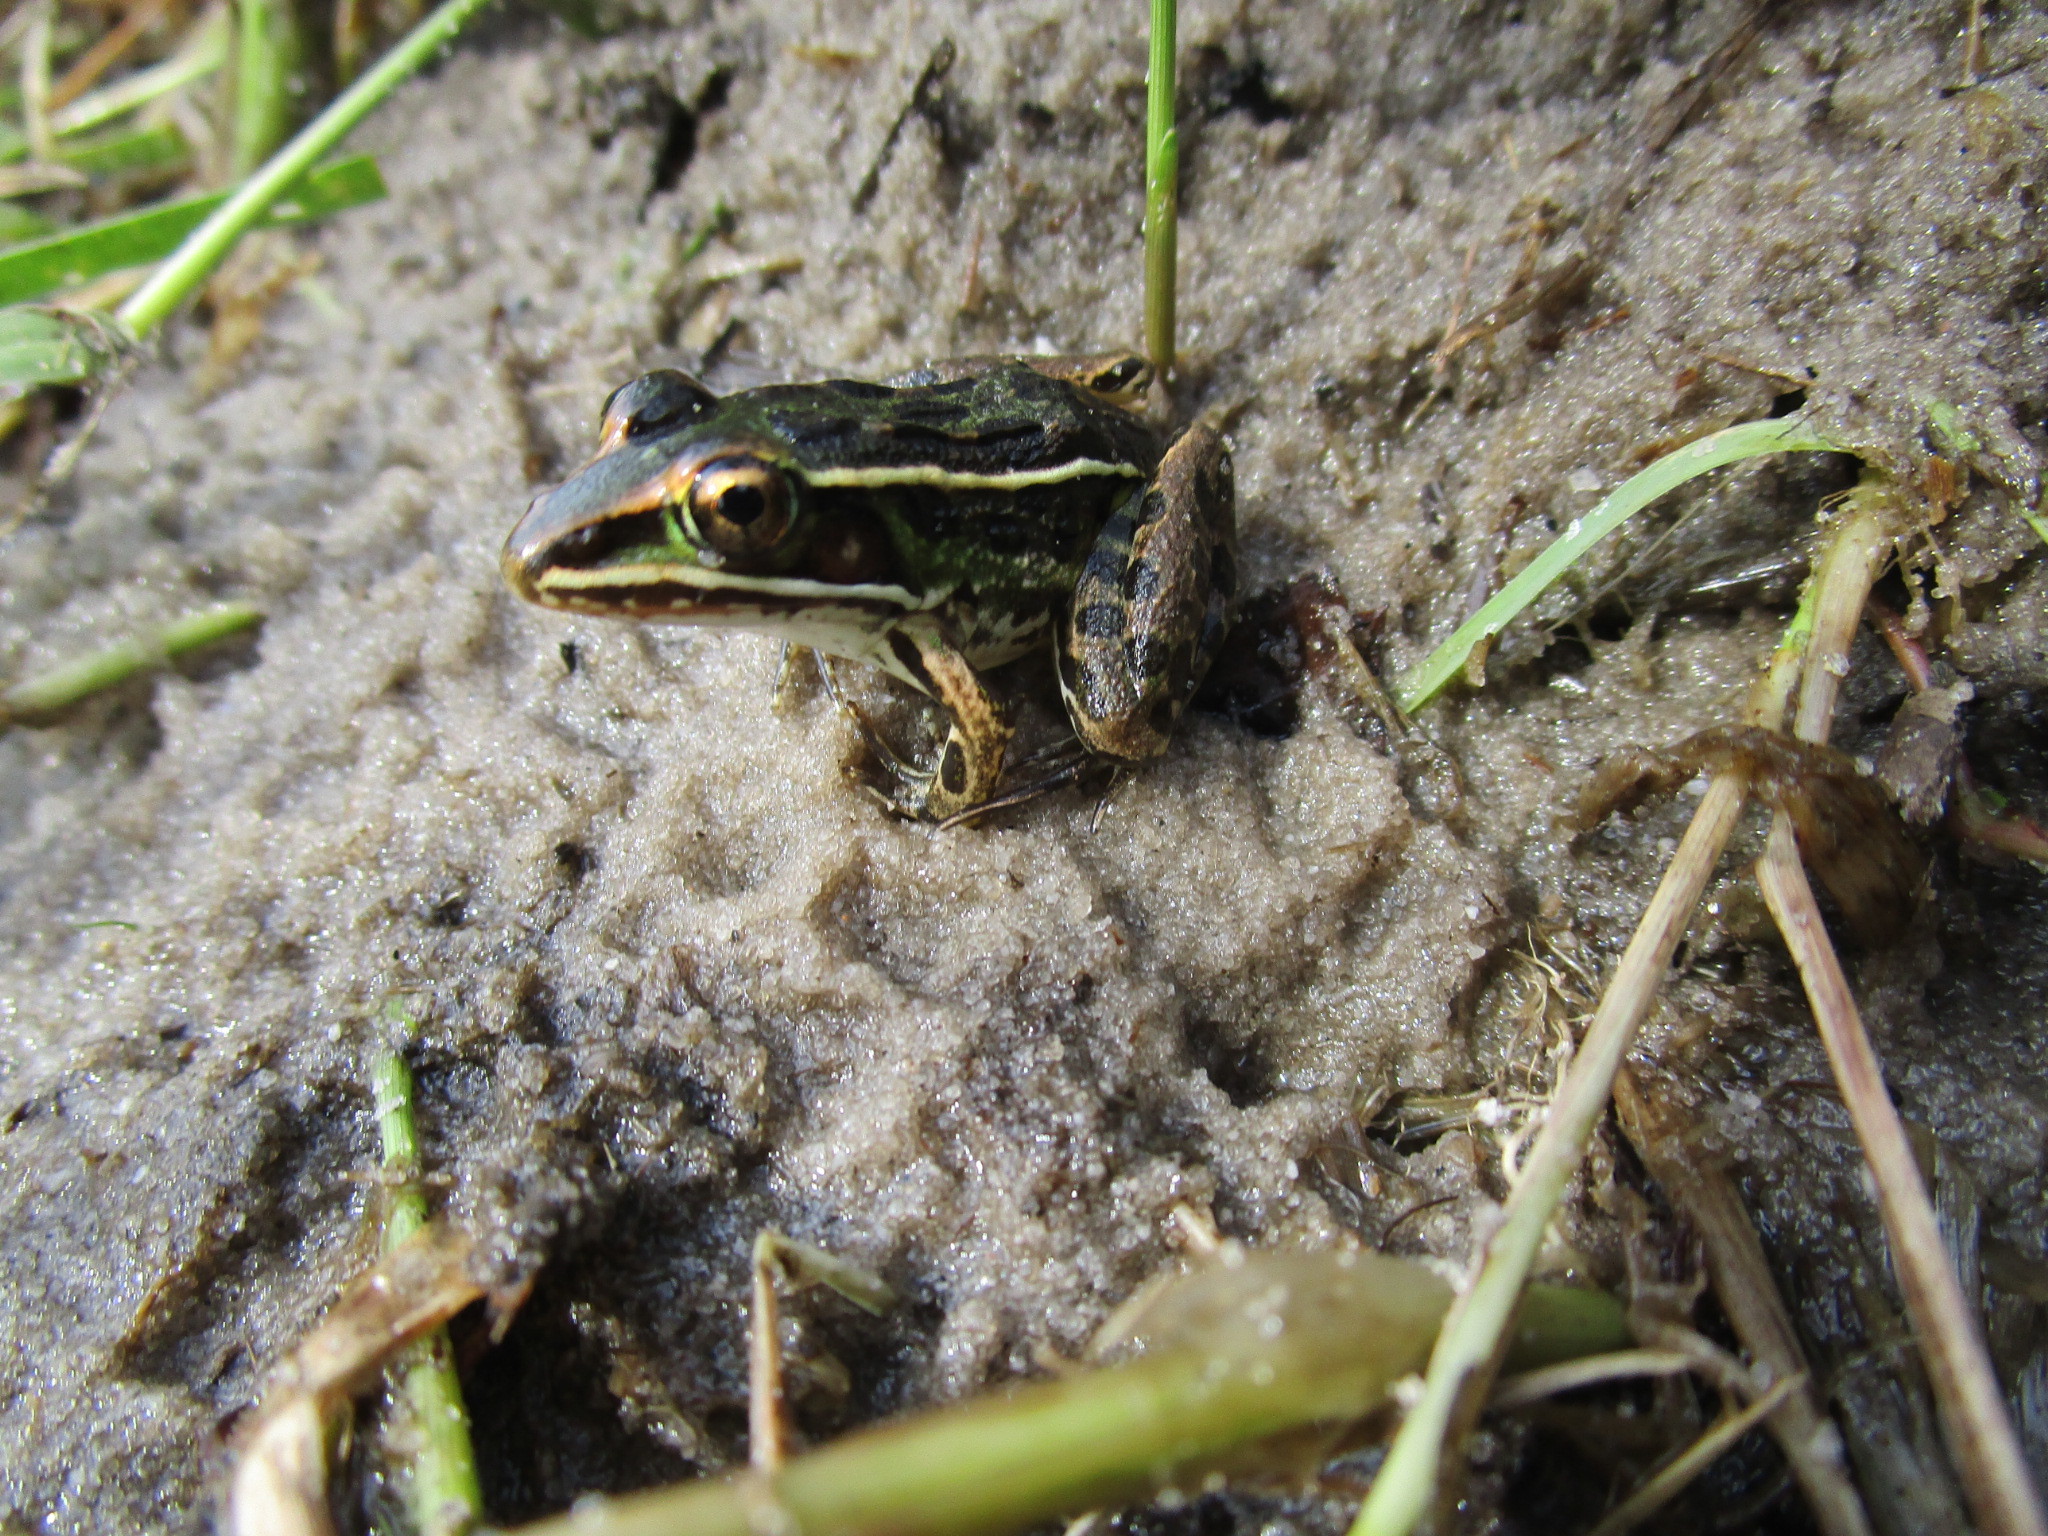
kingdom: Animalia
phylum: Chordata
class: Amphibia
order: Anura
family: Ranidae
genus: Lithobates
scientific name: Lithobates sphenocephalus
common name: Southern leopard frog
